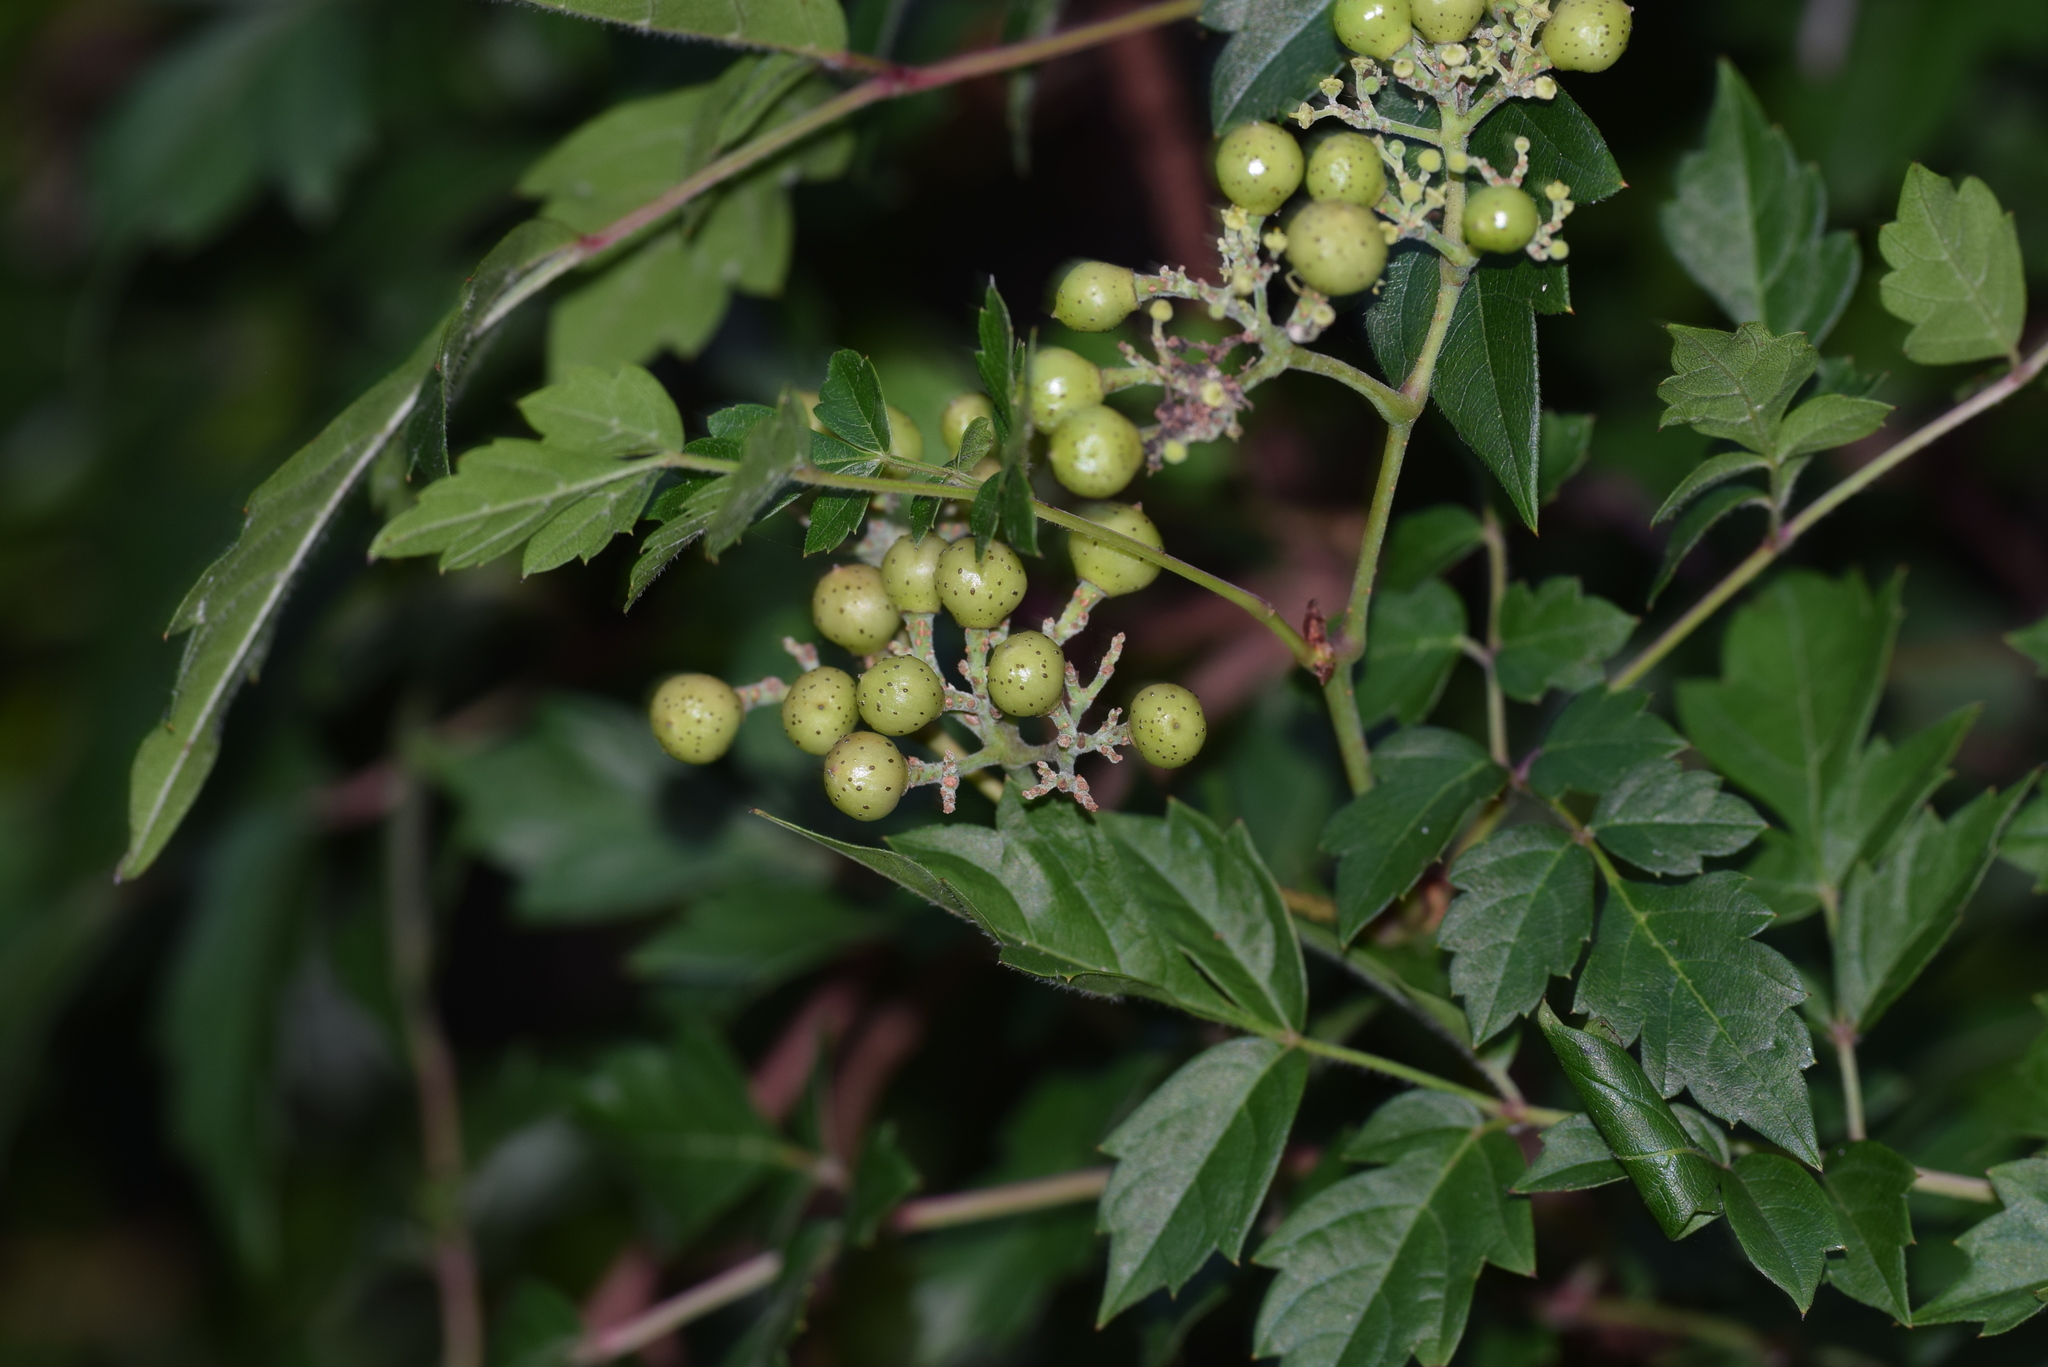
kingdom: Plantae
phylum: Tracheophyta
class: Magnoliopsida
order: Vitales
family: Vitaceae
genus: Nekemias
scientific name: Nekemias arborea
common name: Peppervine
